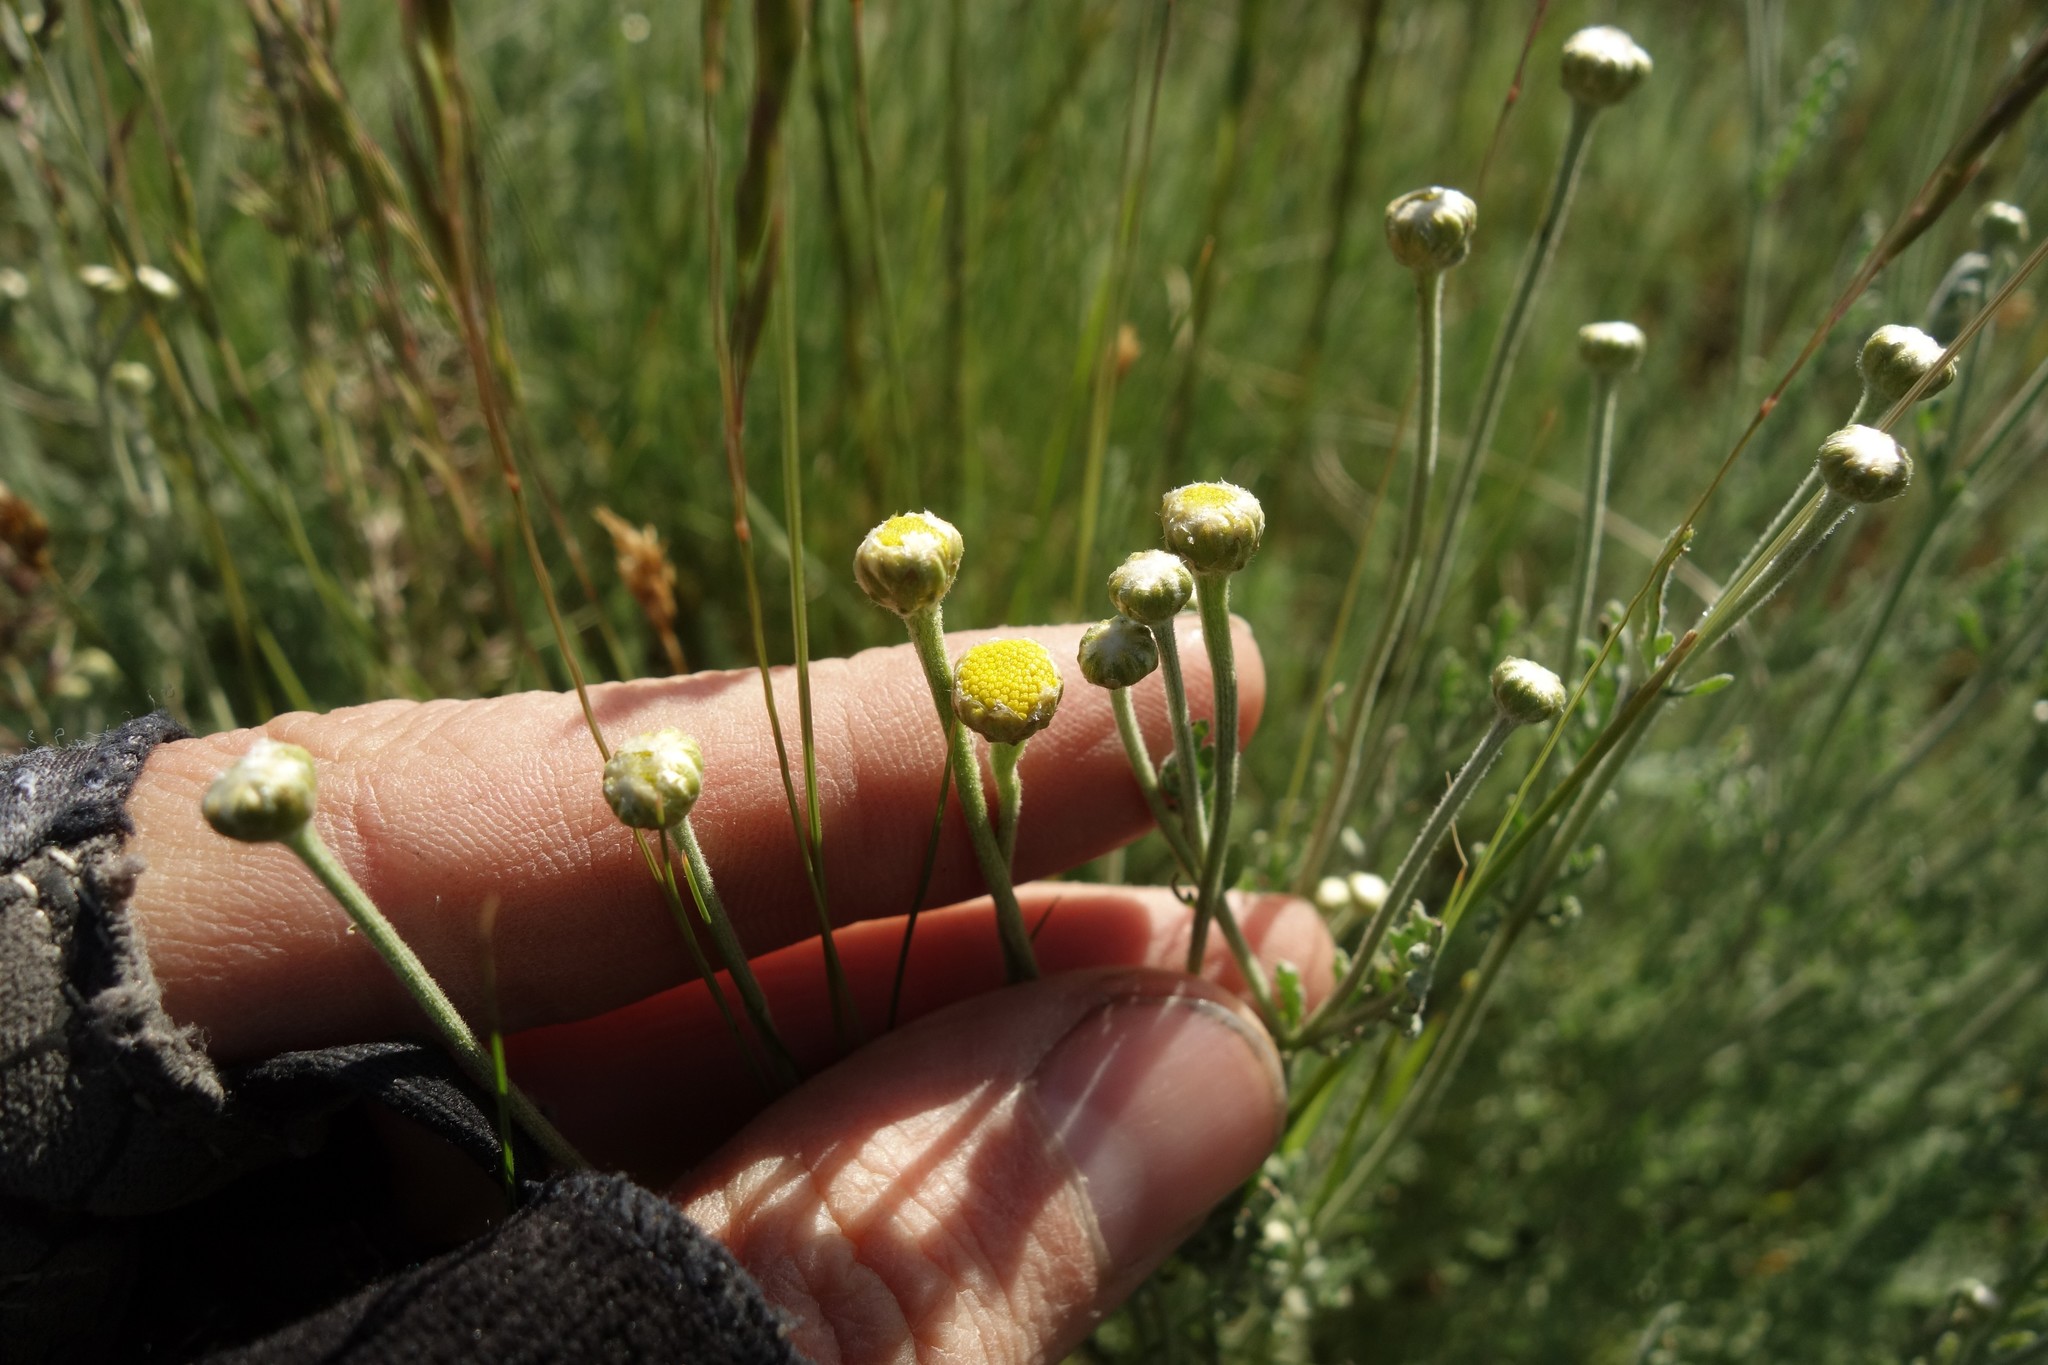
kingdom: Plantae
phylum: Tracheophyta
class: Magnoliopsida
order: Asterales
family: Asteraceae
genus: Tanacetum
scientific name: Tanacetum achilleifolium
